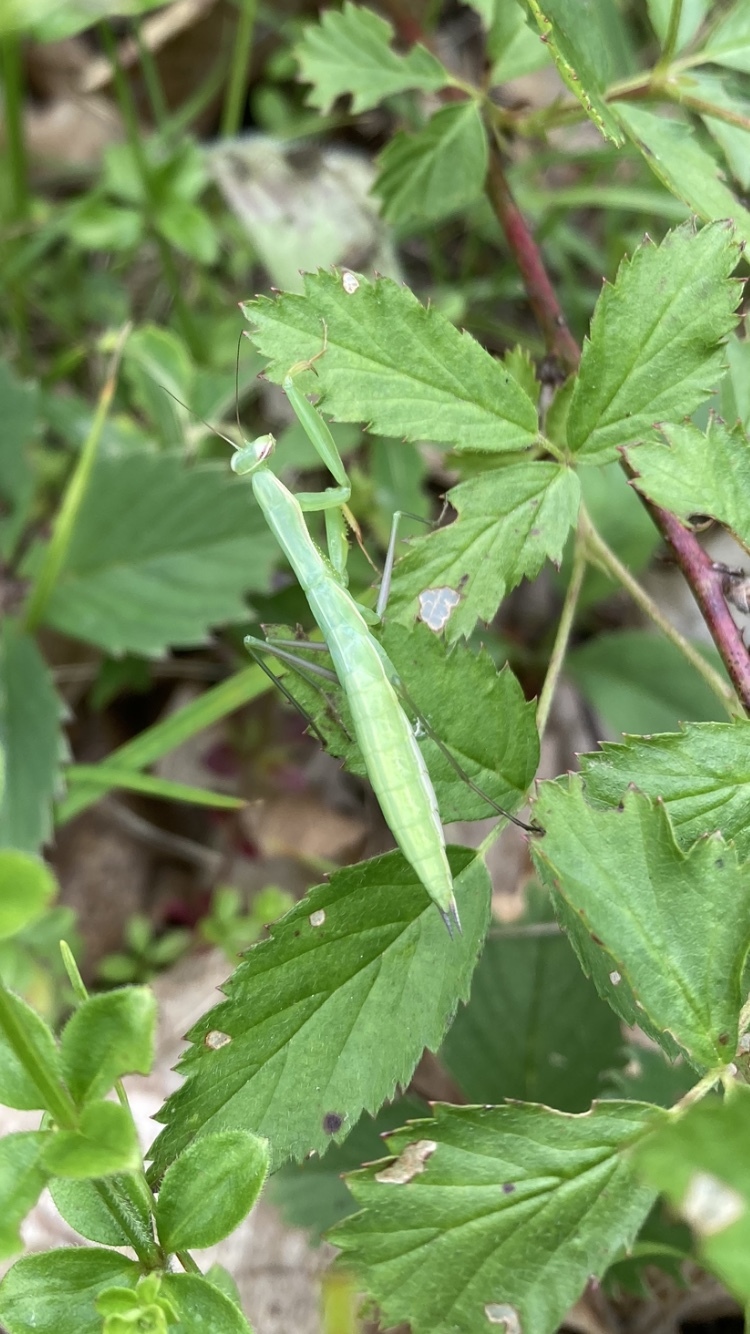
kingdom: Animalia
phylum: Arthropoda
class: Insecta
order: Mantodea
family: Mantidae
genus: Mantis
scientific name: Mantis religiosa
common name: Praying mantis
